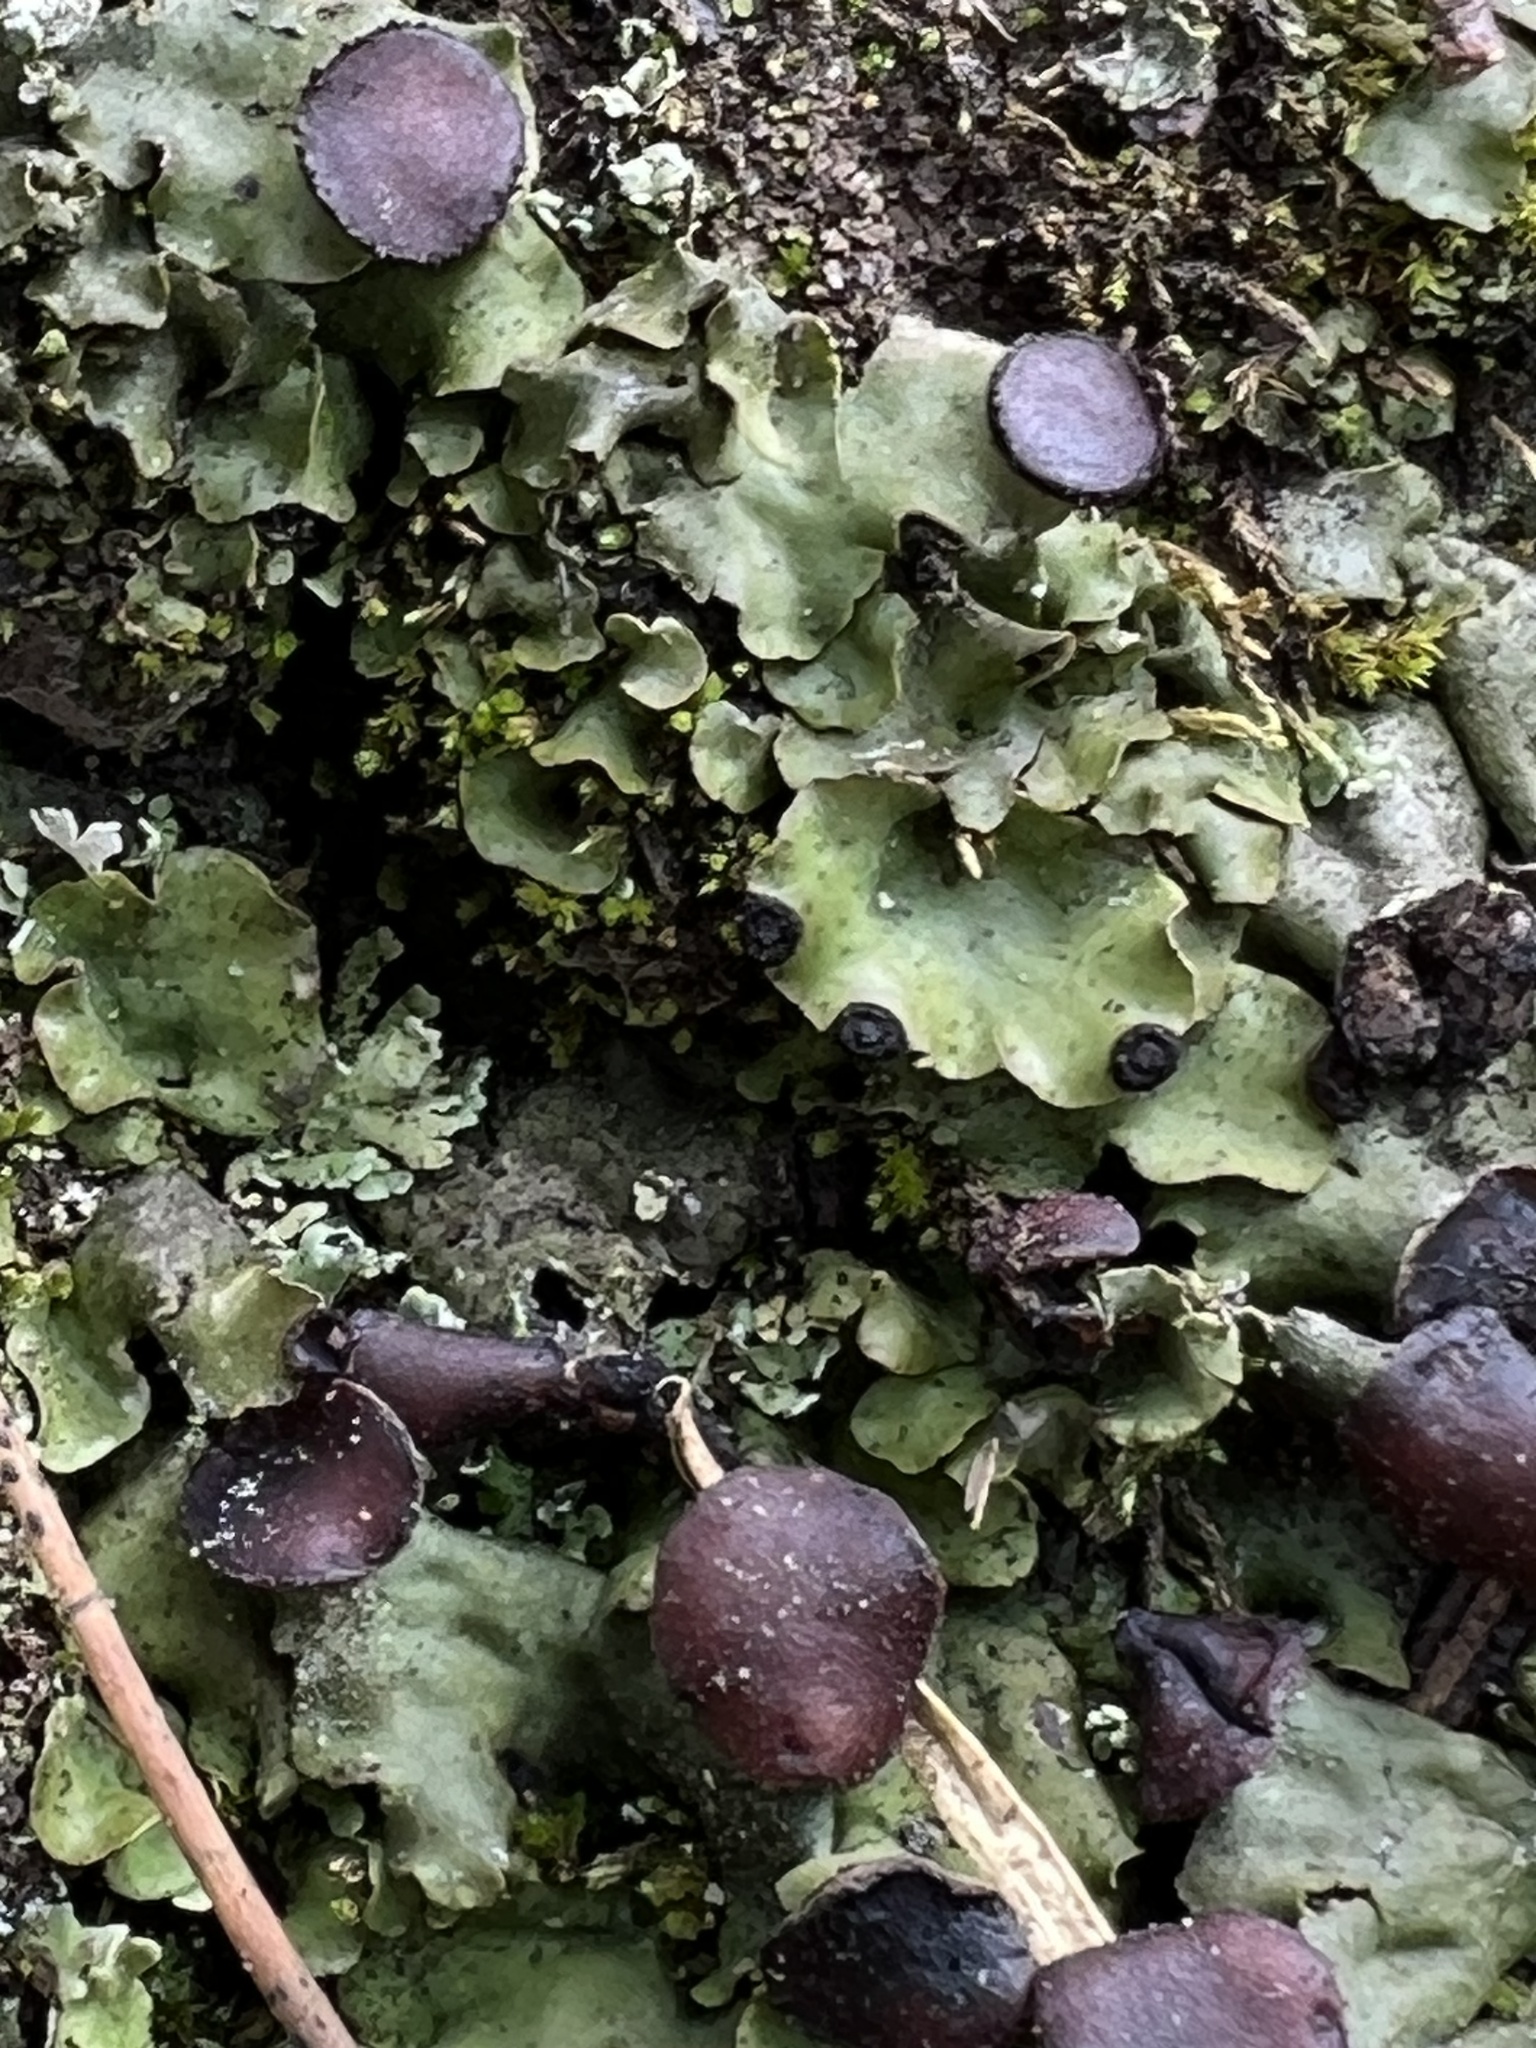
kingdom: Fungi
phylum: Ascomycota
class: Lecanoromycetes
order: Peltigerales
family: Peltigeraceae
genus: Peltigera
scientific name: Peltigera venosa
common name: Pixie gowns lichen
